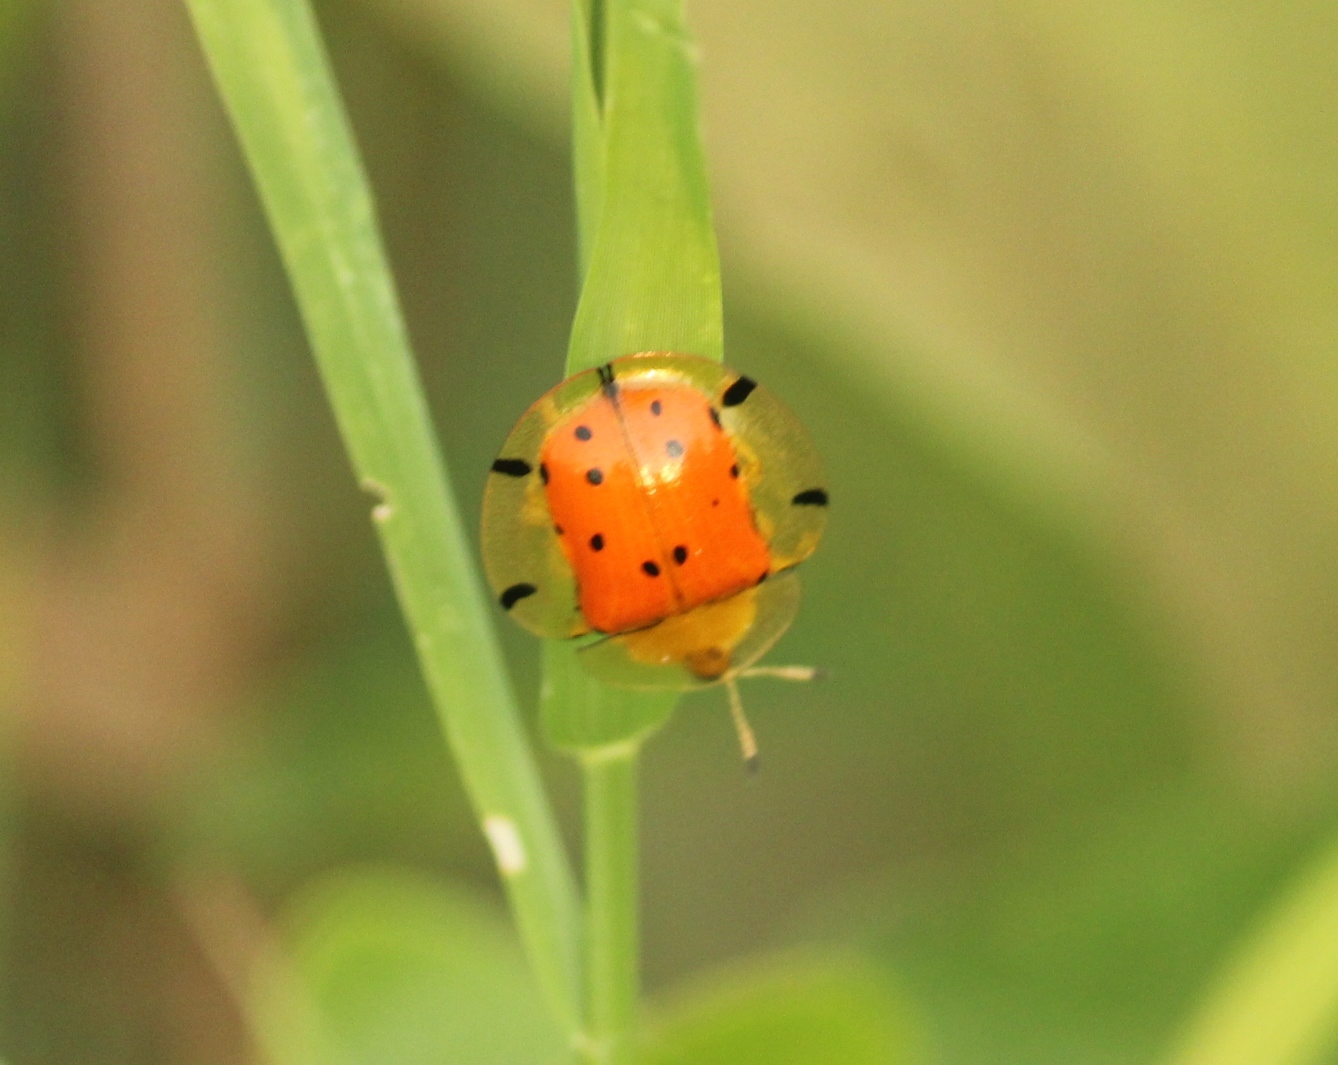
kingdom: Animalia
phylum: Arthropoda
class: Insecta
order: Coleoptera
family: Chrysomelidae
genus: Aspidimorpha
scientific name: Aspidimorpha miliaris
